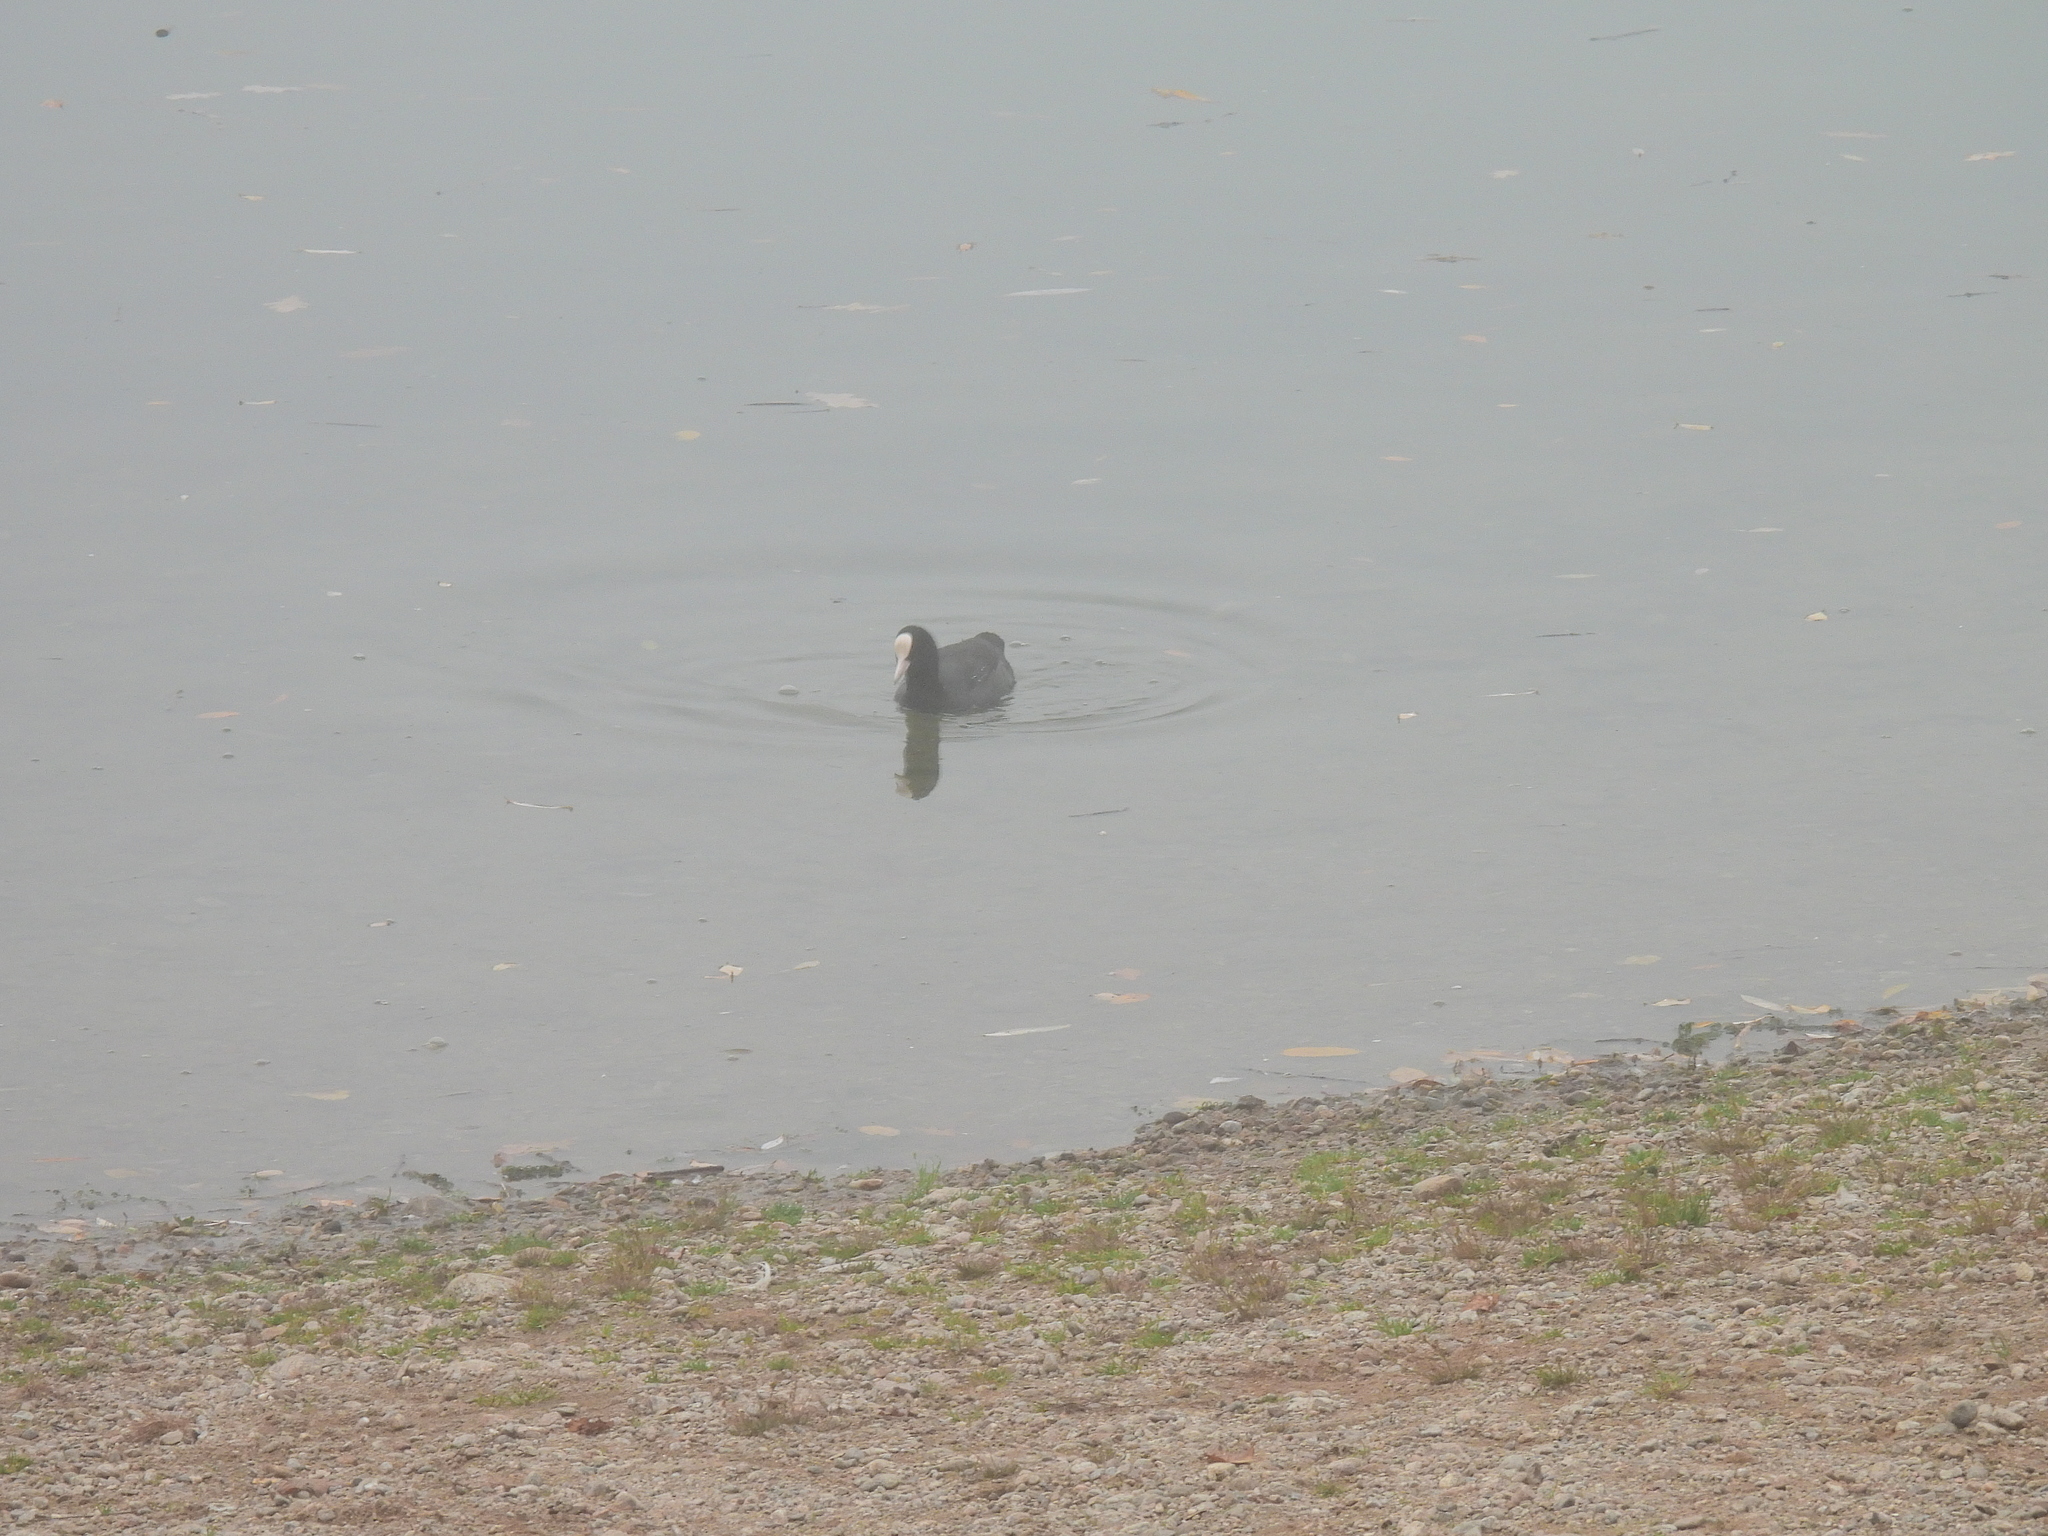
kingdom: Animalia
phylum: Chordata
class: Aves
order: Gruiformes
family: Rallidae
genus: Fulica
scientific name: Fulica atra
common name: Eurasian coot
